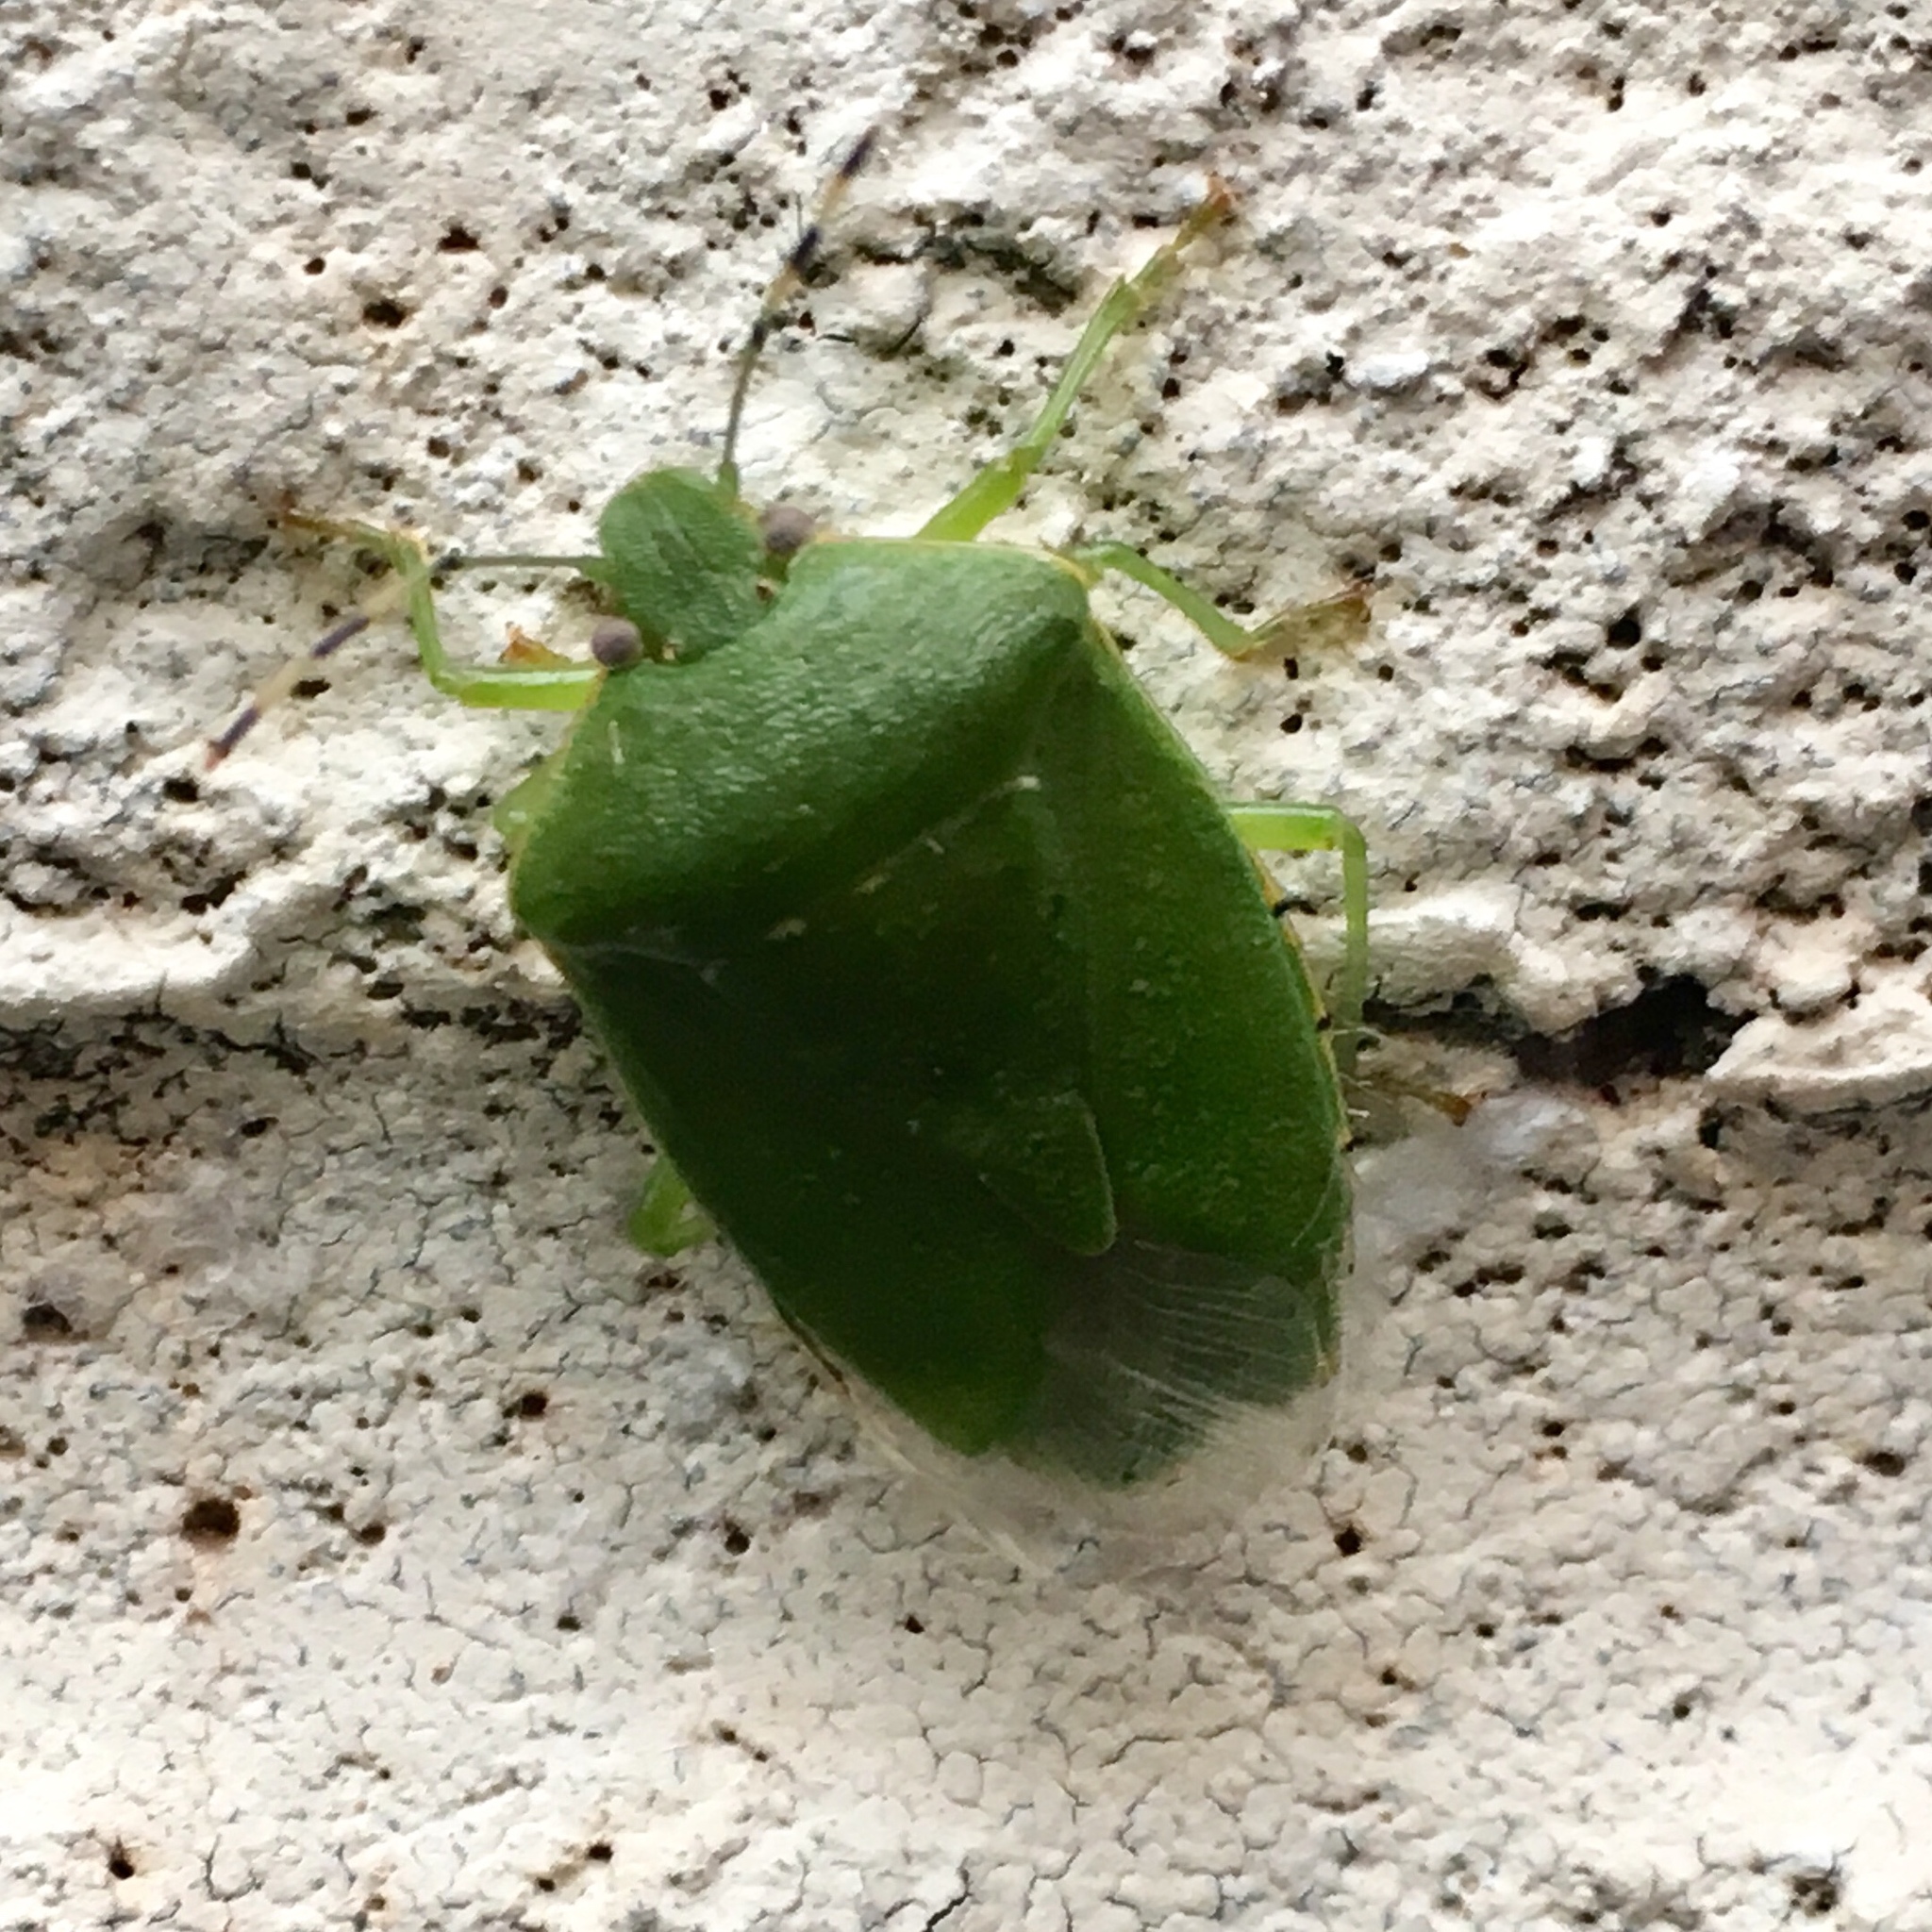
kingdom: Animalia
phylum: Arthropoda
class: Insecta
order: Hemiptera
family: Pentatomidae
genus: Chinavia
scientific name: Chinavia hilaris
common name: Green stink bug
